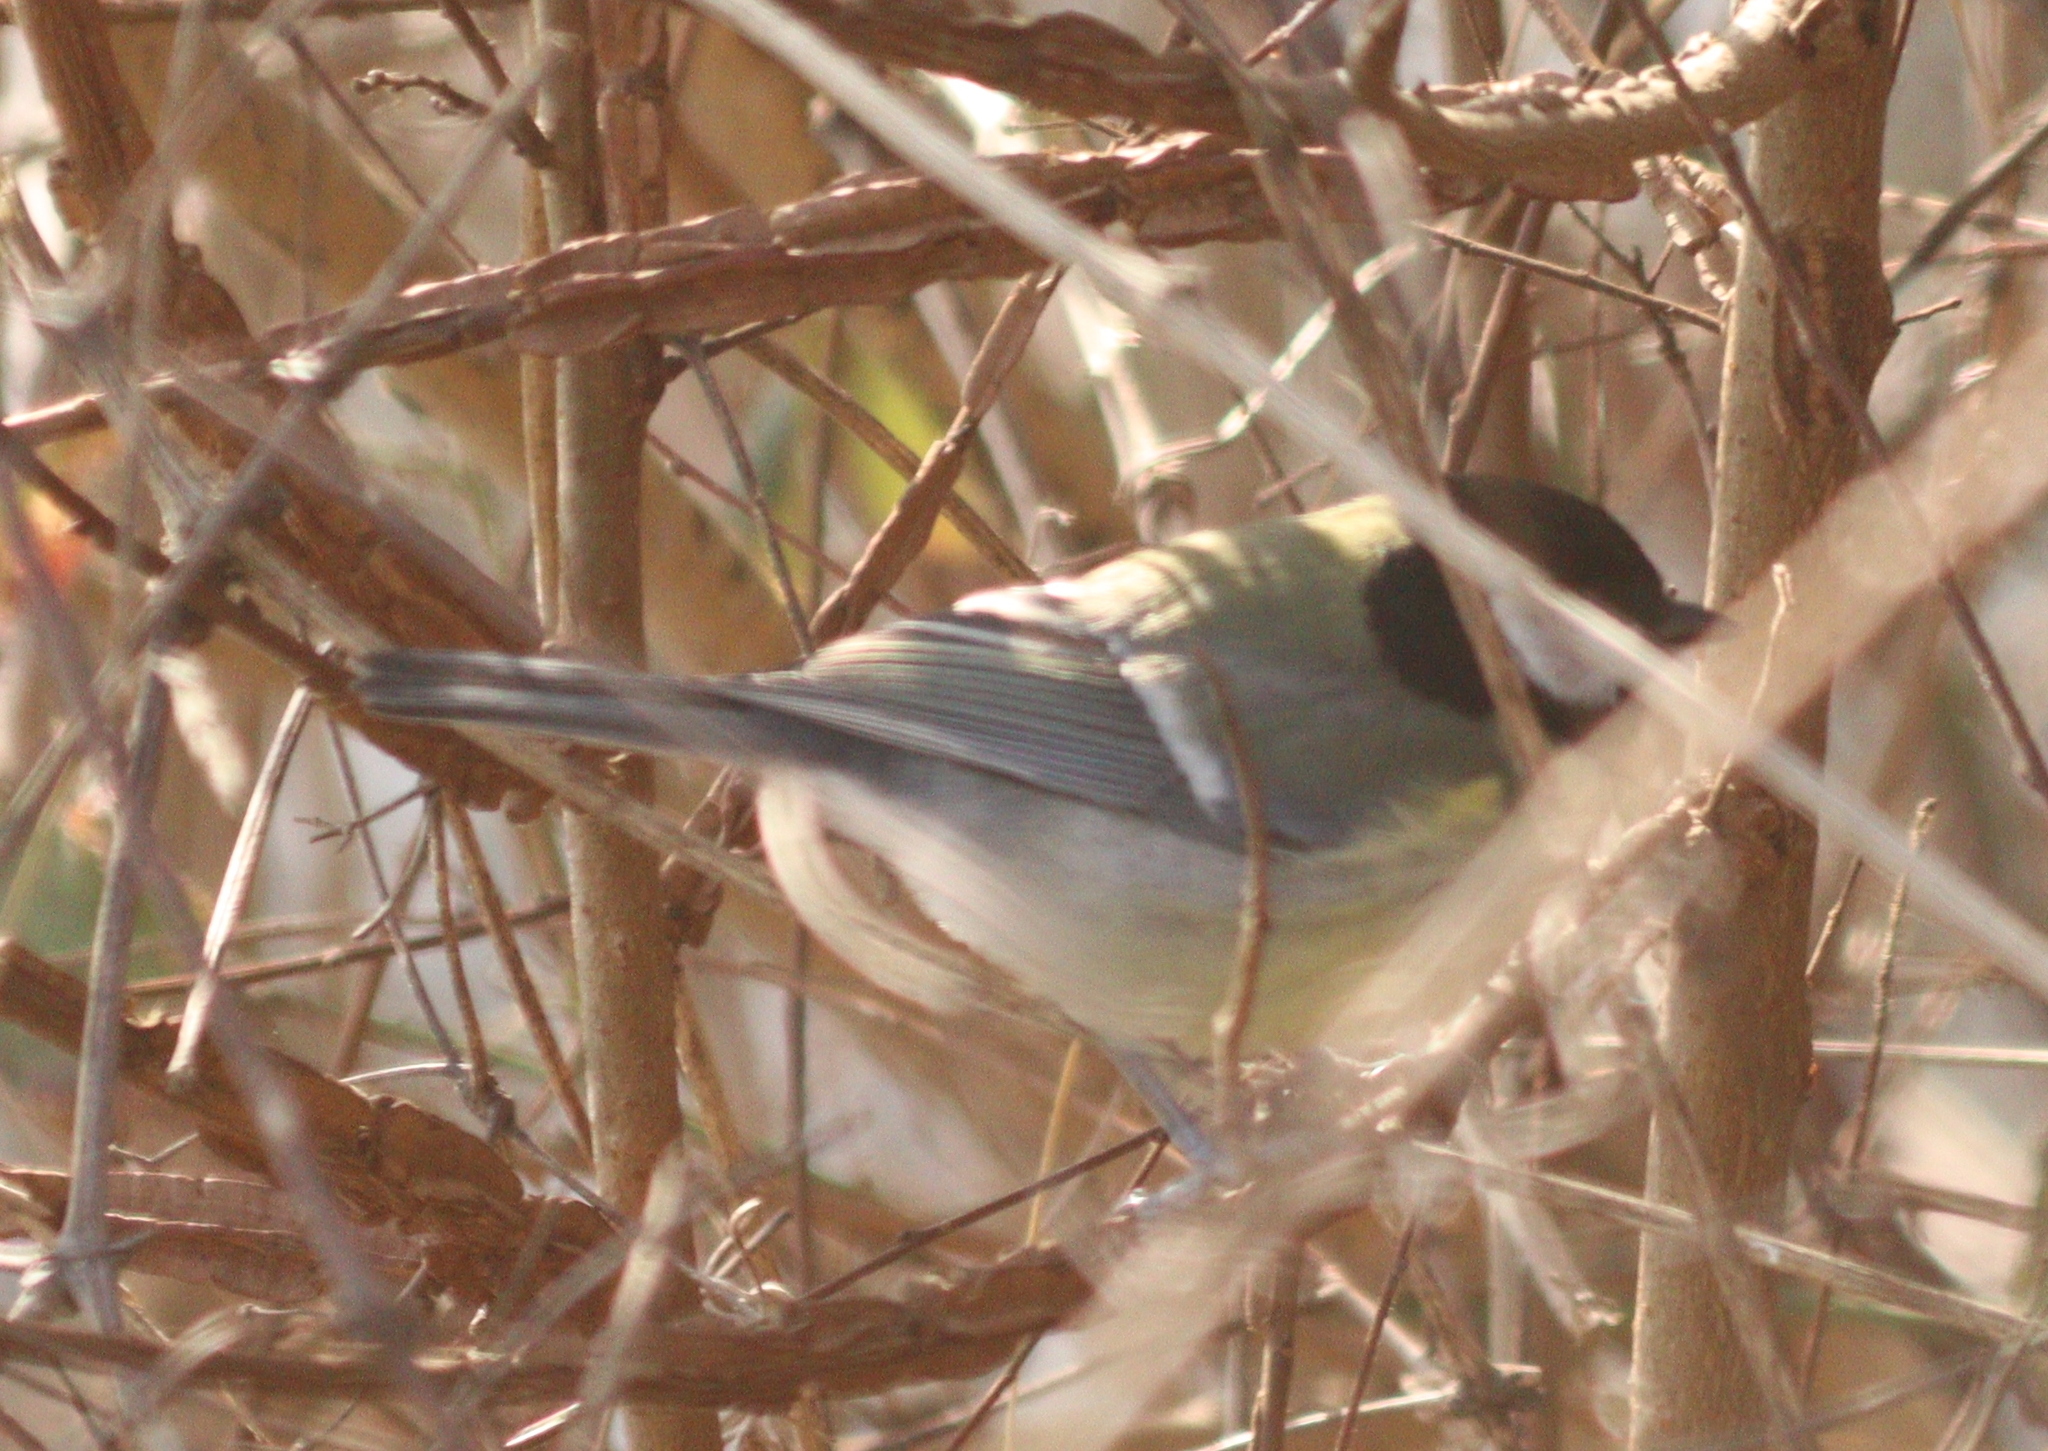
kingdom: Animalia
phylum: Chordata
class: Aves
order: Passeriformes
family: Paridae
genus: Parus
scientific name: Parus major
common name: Great tit
